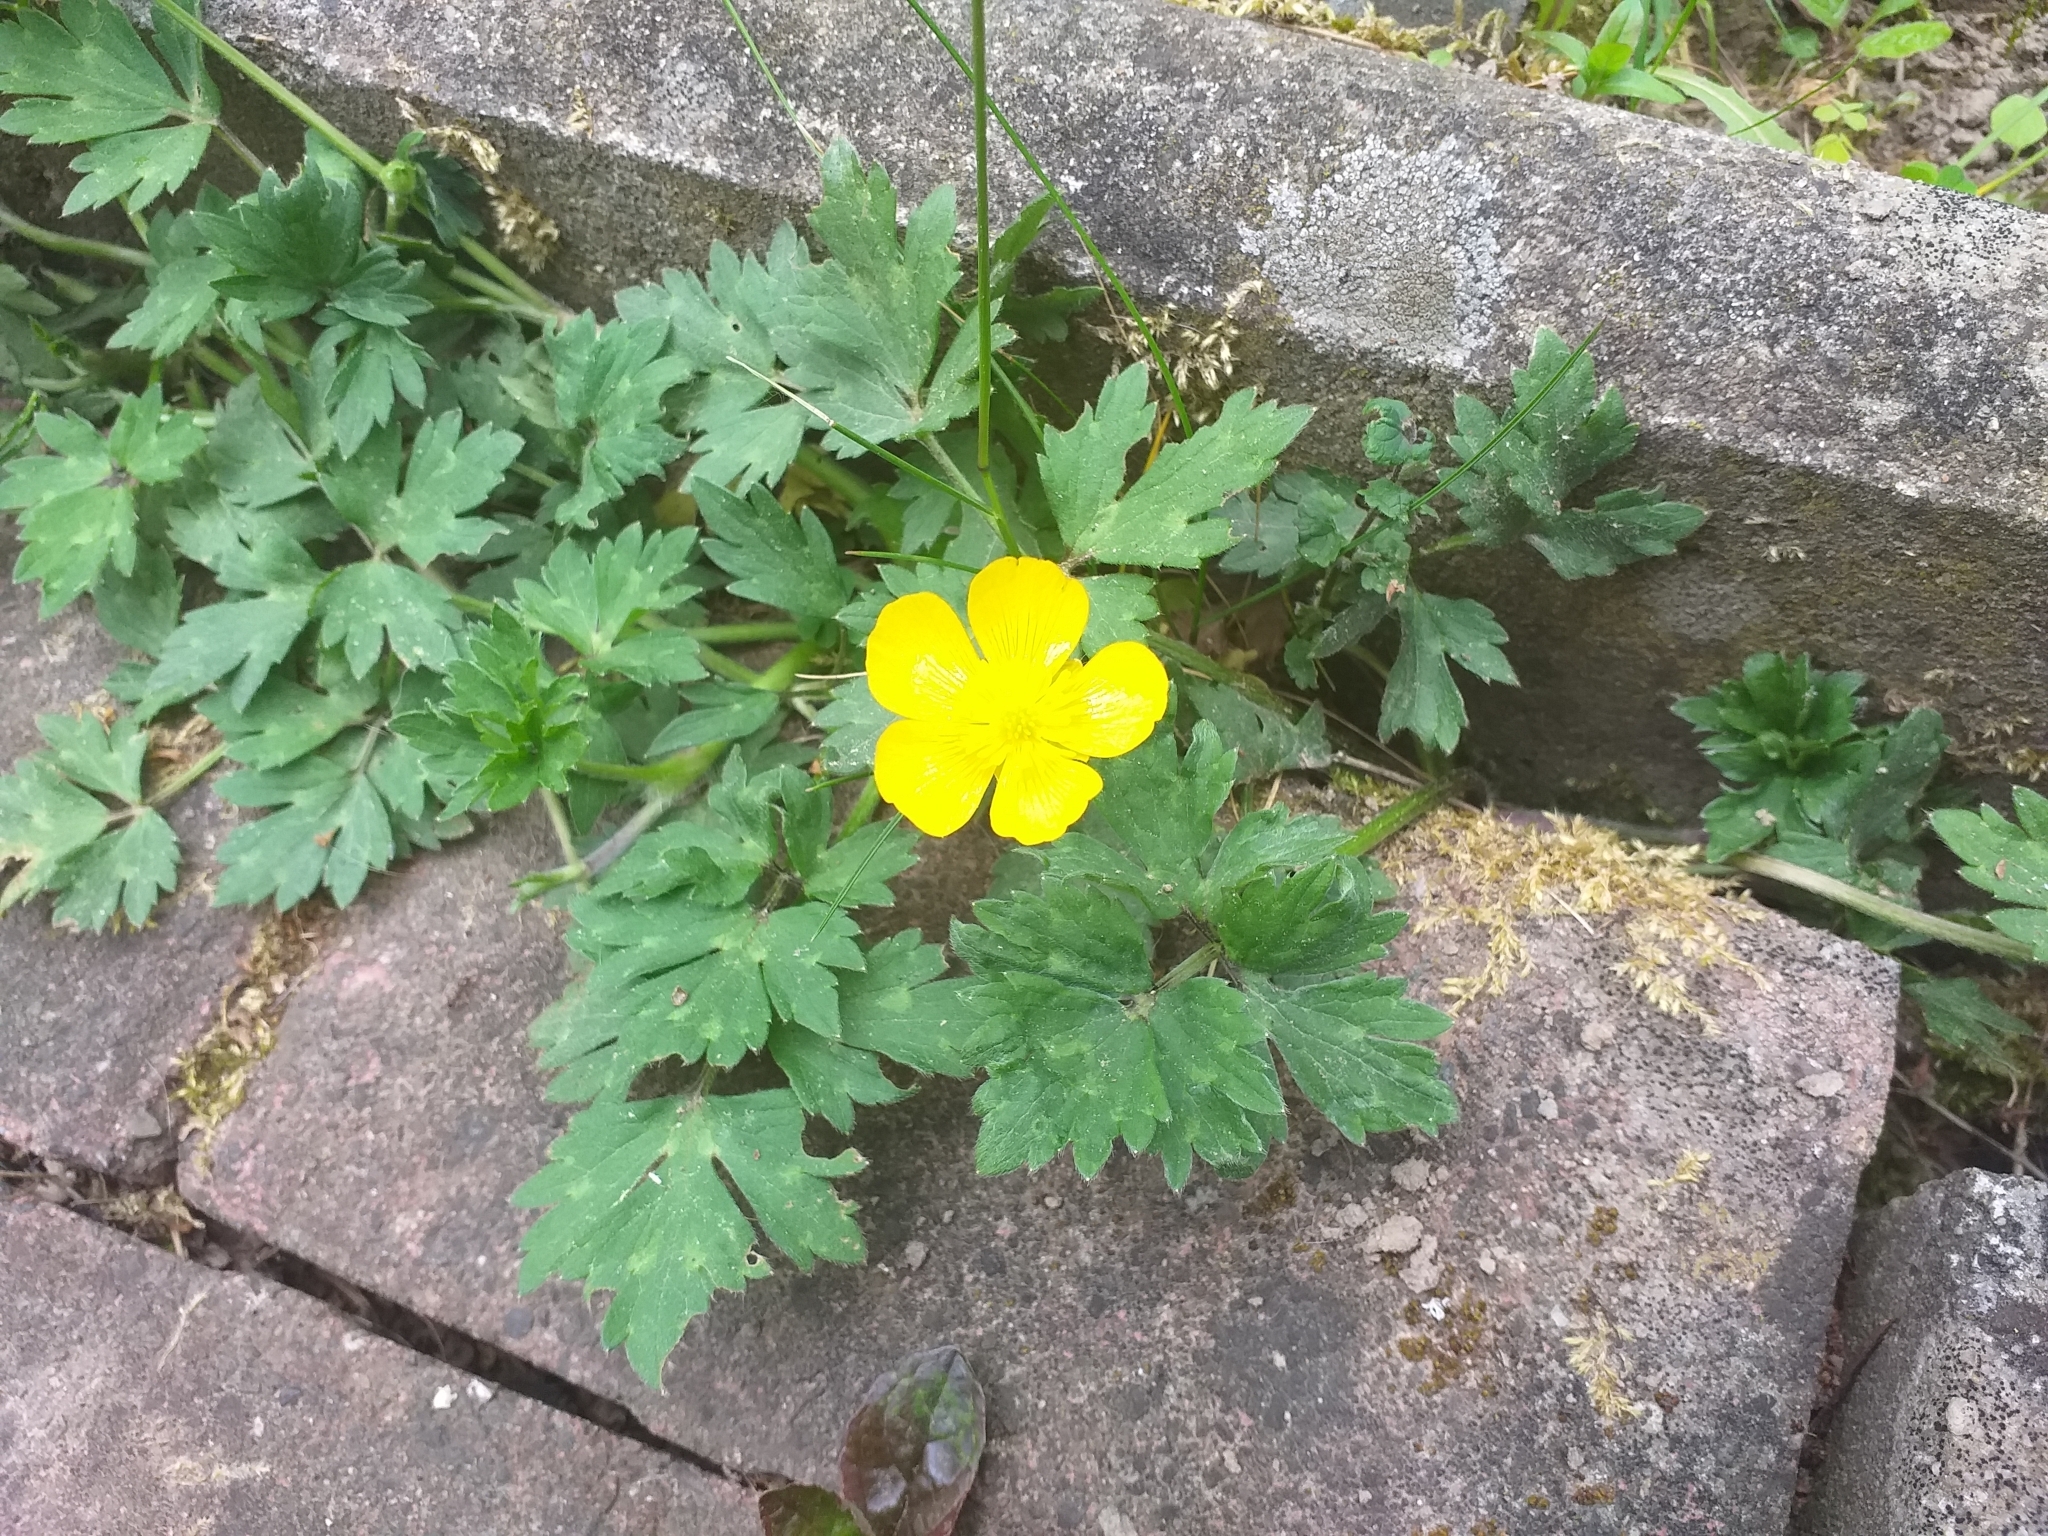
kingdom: Plantae
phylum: Tracheophyta
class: Magnoliopsida
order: Ranunculales
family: Ranunculaceae
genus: Ranunculus
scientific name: Ranunculus repens
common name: Creeping buttercup
